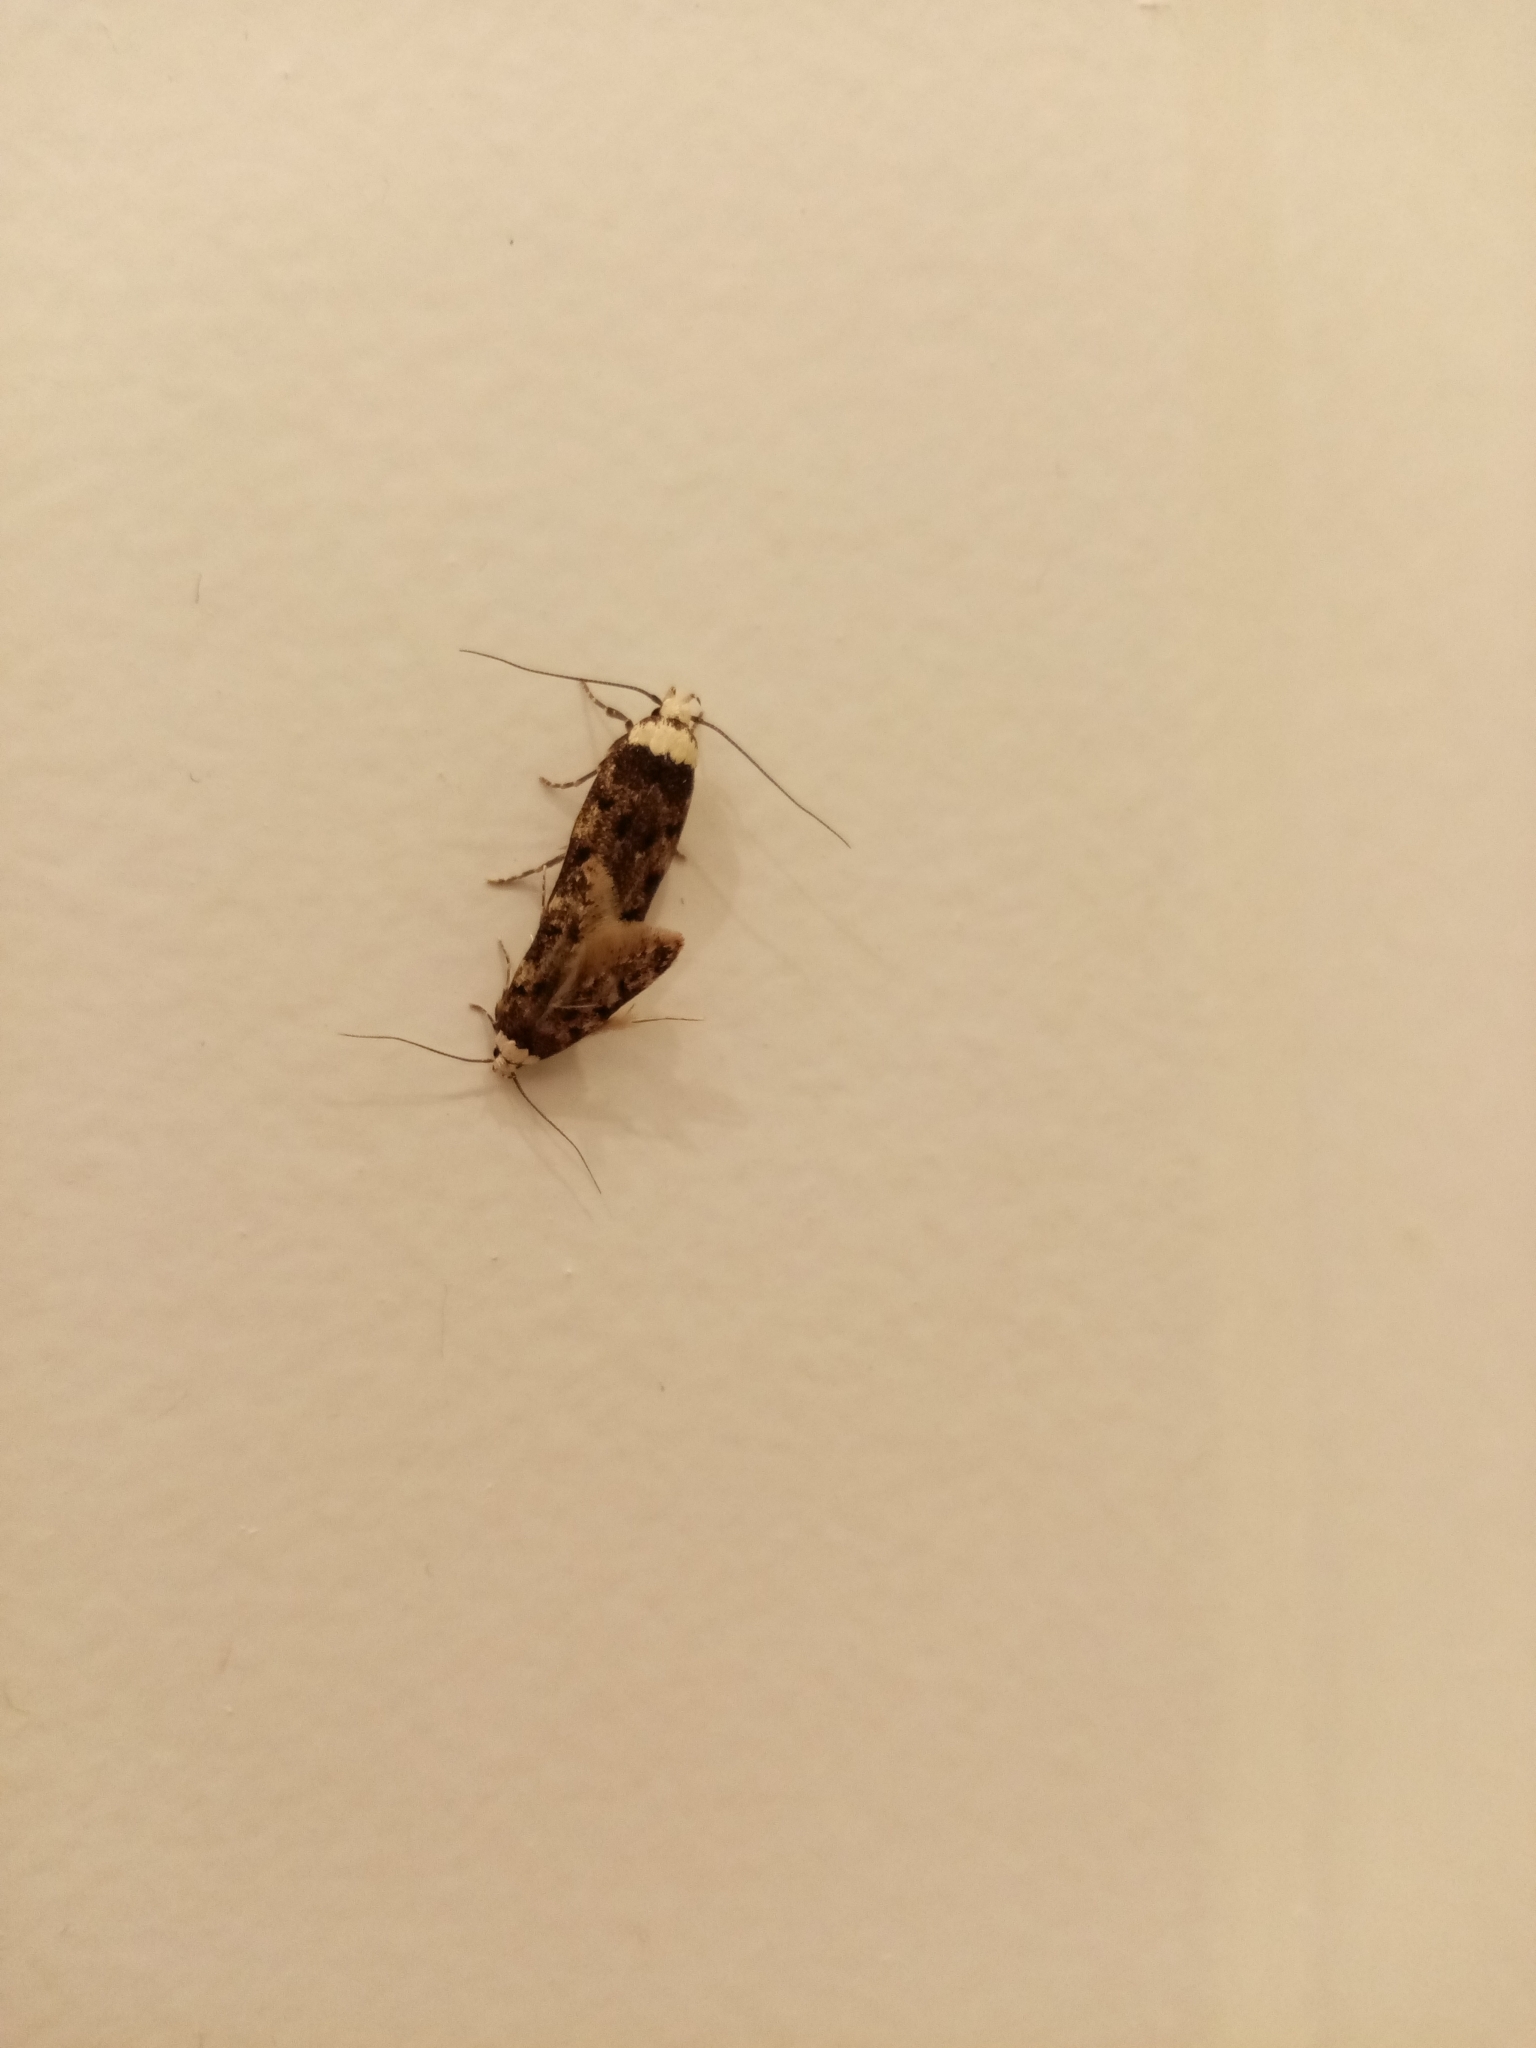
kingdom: Animalia
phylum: Arthropoda
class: Insecta
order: Lepidoptera
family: Oecophoridae
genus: Endrosis
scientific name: Endrosis sarcitrella
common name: White-shouldered house moth
